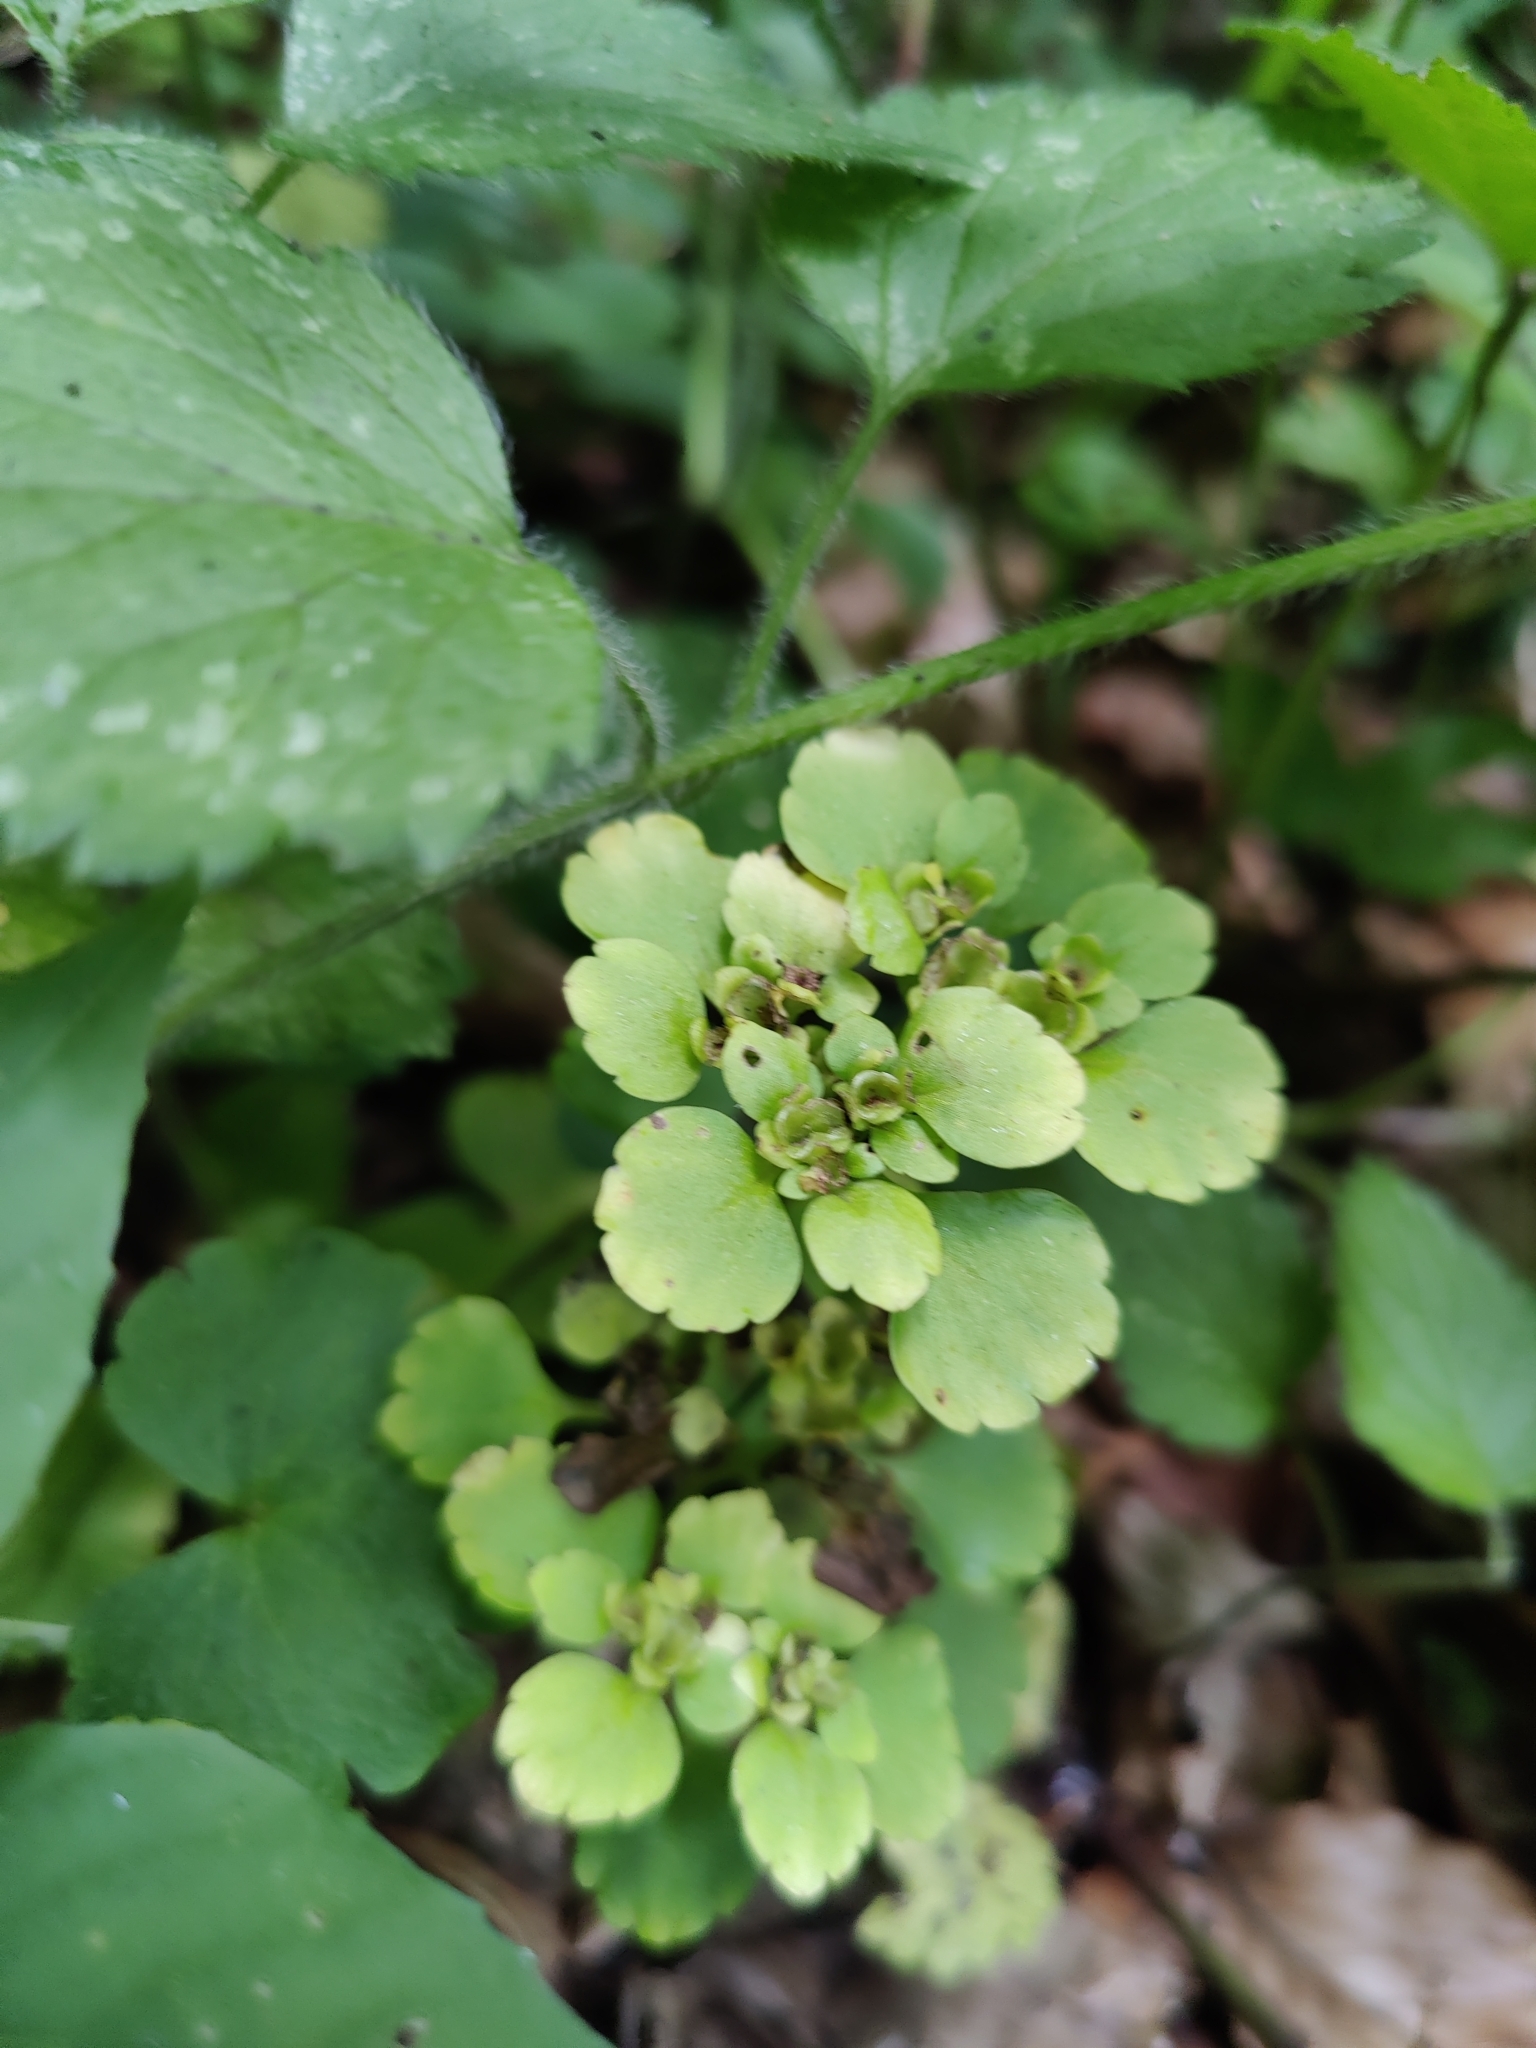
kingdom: Plantae
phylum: Tracheophyta
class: Magnoliopsida
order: Saxifragales
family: Saxifragaceae
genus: Chrysosplenium
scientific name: Chrysosplenium alternifolium
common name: Alternate-leaved golden-saxifrage
